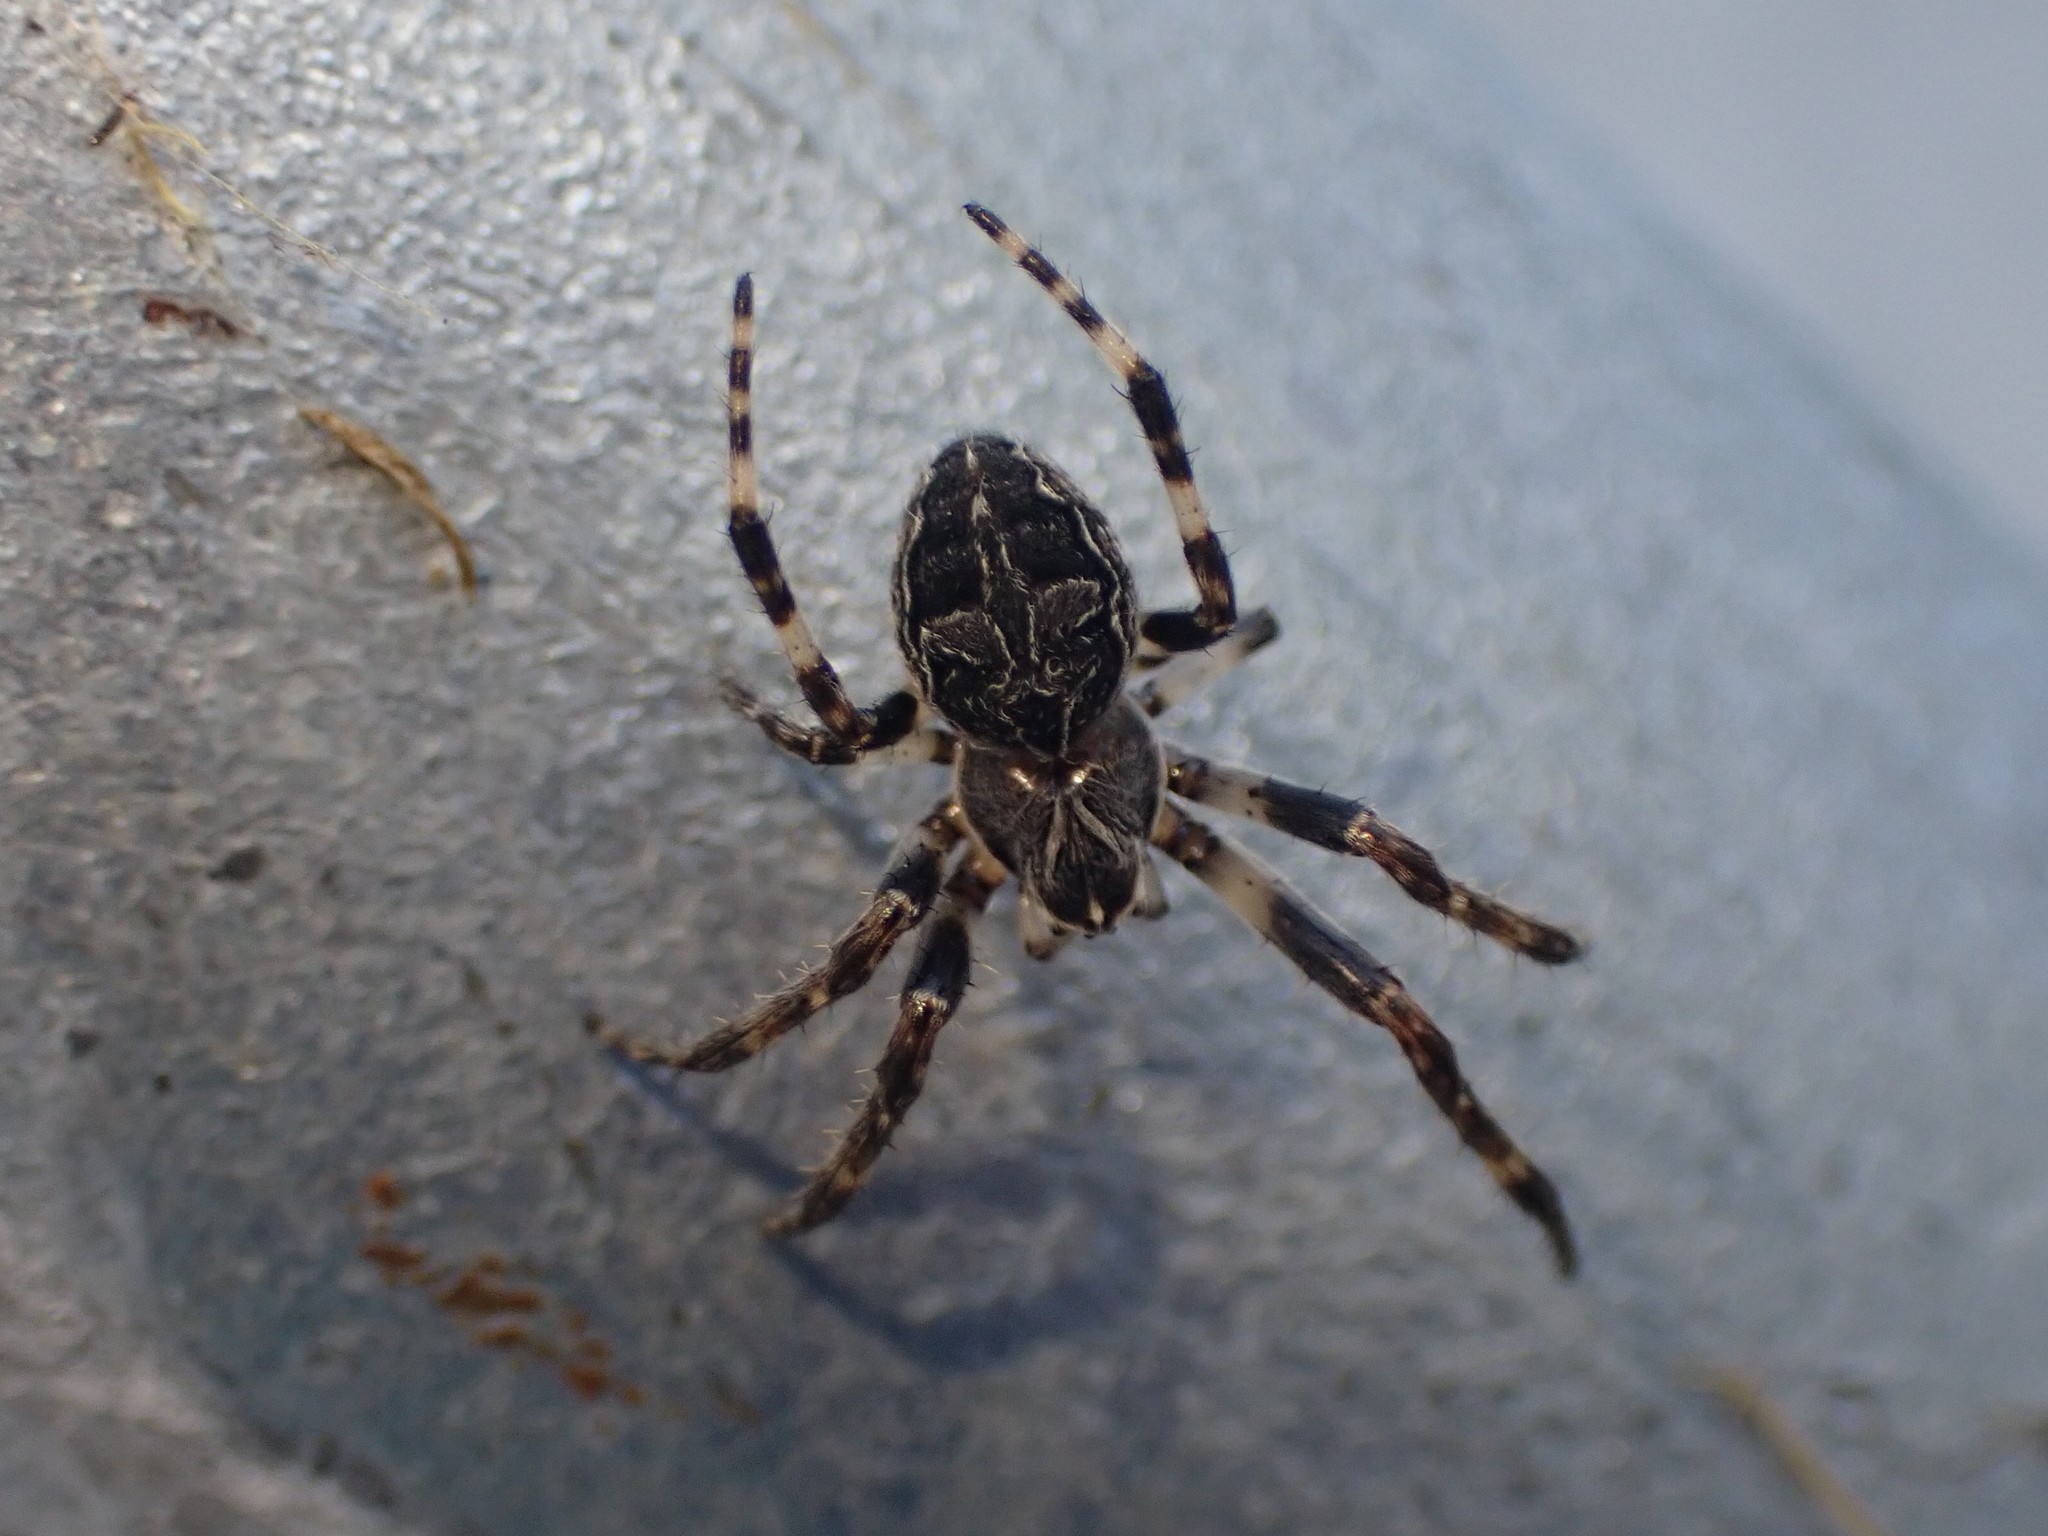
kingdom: Animalia
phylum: Arthropoda
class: Arachnida
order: Araneae
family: Araneidae
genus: Larinioides
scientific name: Larinioides sclopetarius
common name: Bridge orbweaver
